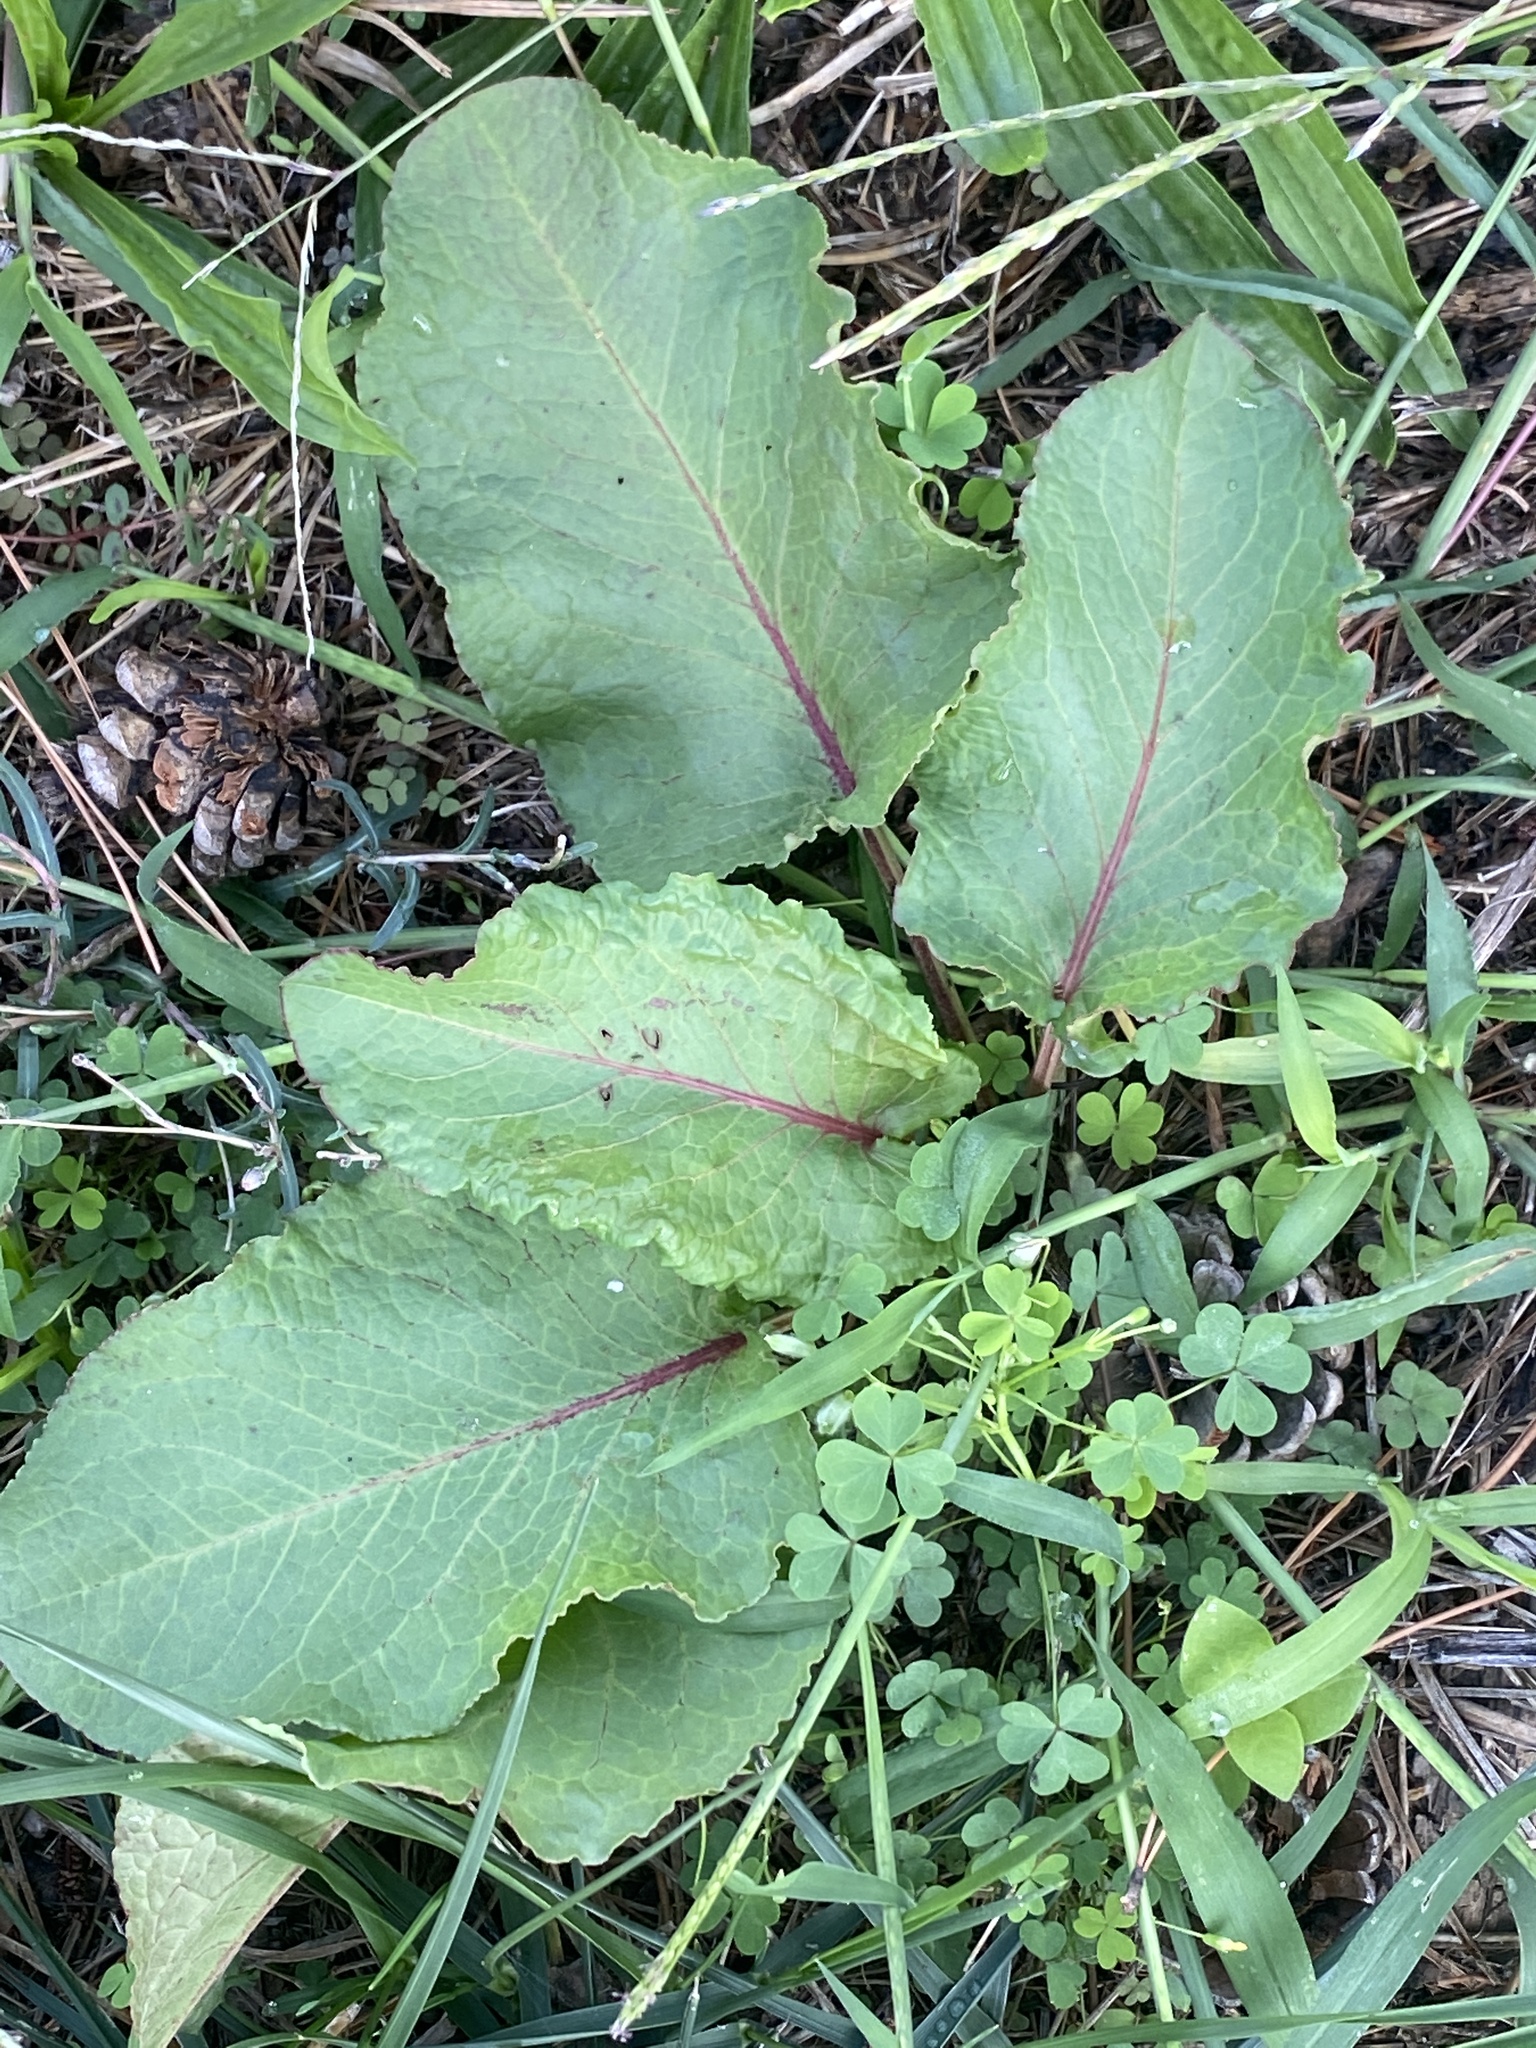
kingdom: Plantae
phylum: Tracheophyta
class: Magnoliopsida
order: Caryophyllales
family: Polygonaceae
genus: Rumex
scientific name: Rumex obtusifolius
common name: Bitter dock
